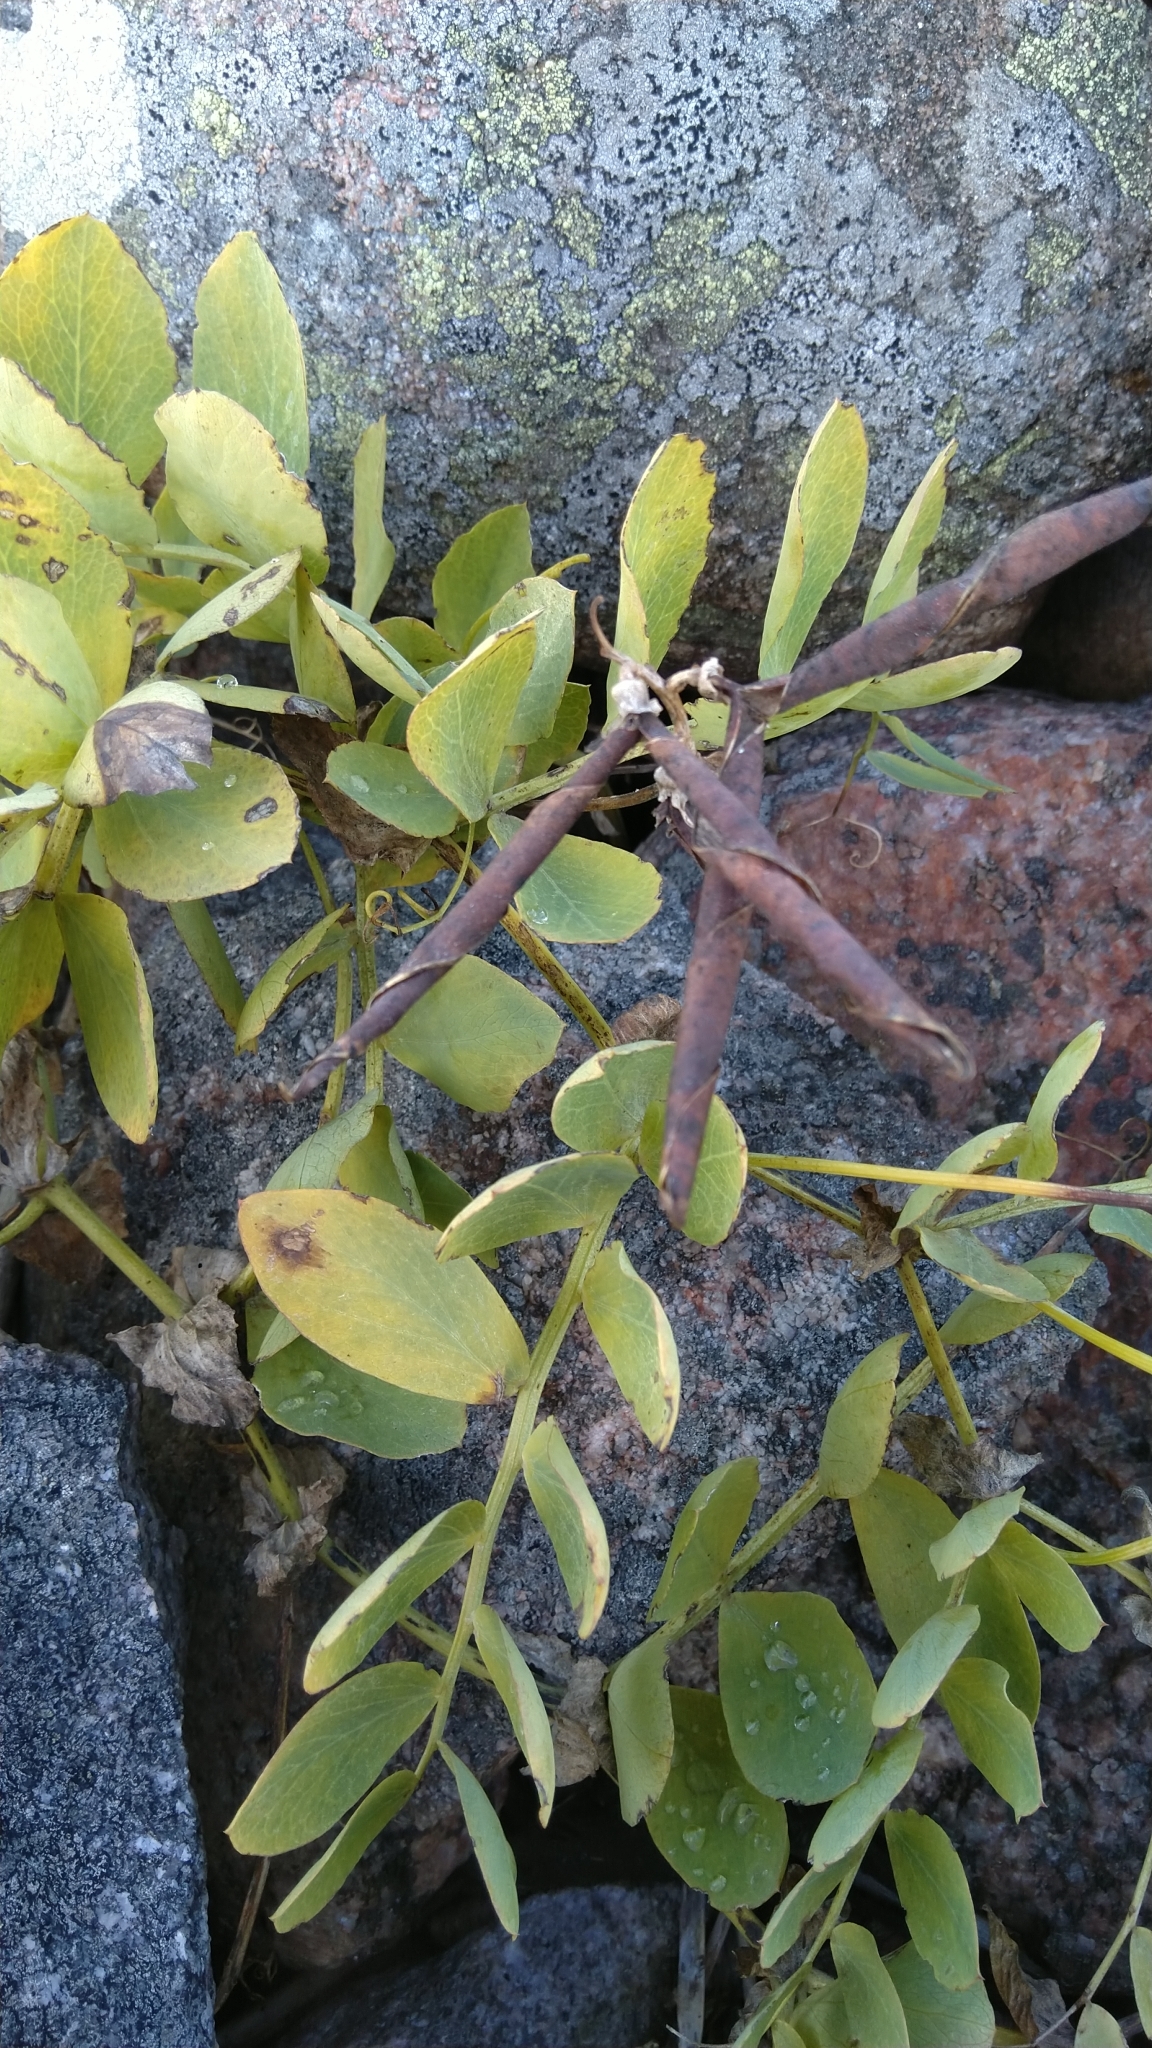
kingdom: Plantae
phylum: Tracheophyta
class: Magnoliopsida
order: Fabales
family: Fabaceae
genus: Lathyrus
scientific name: Lathyrus japonicus
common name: Sea pea
